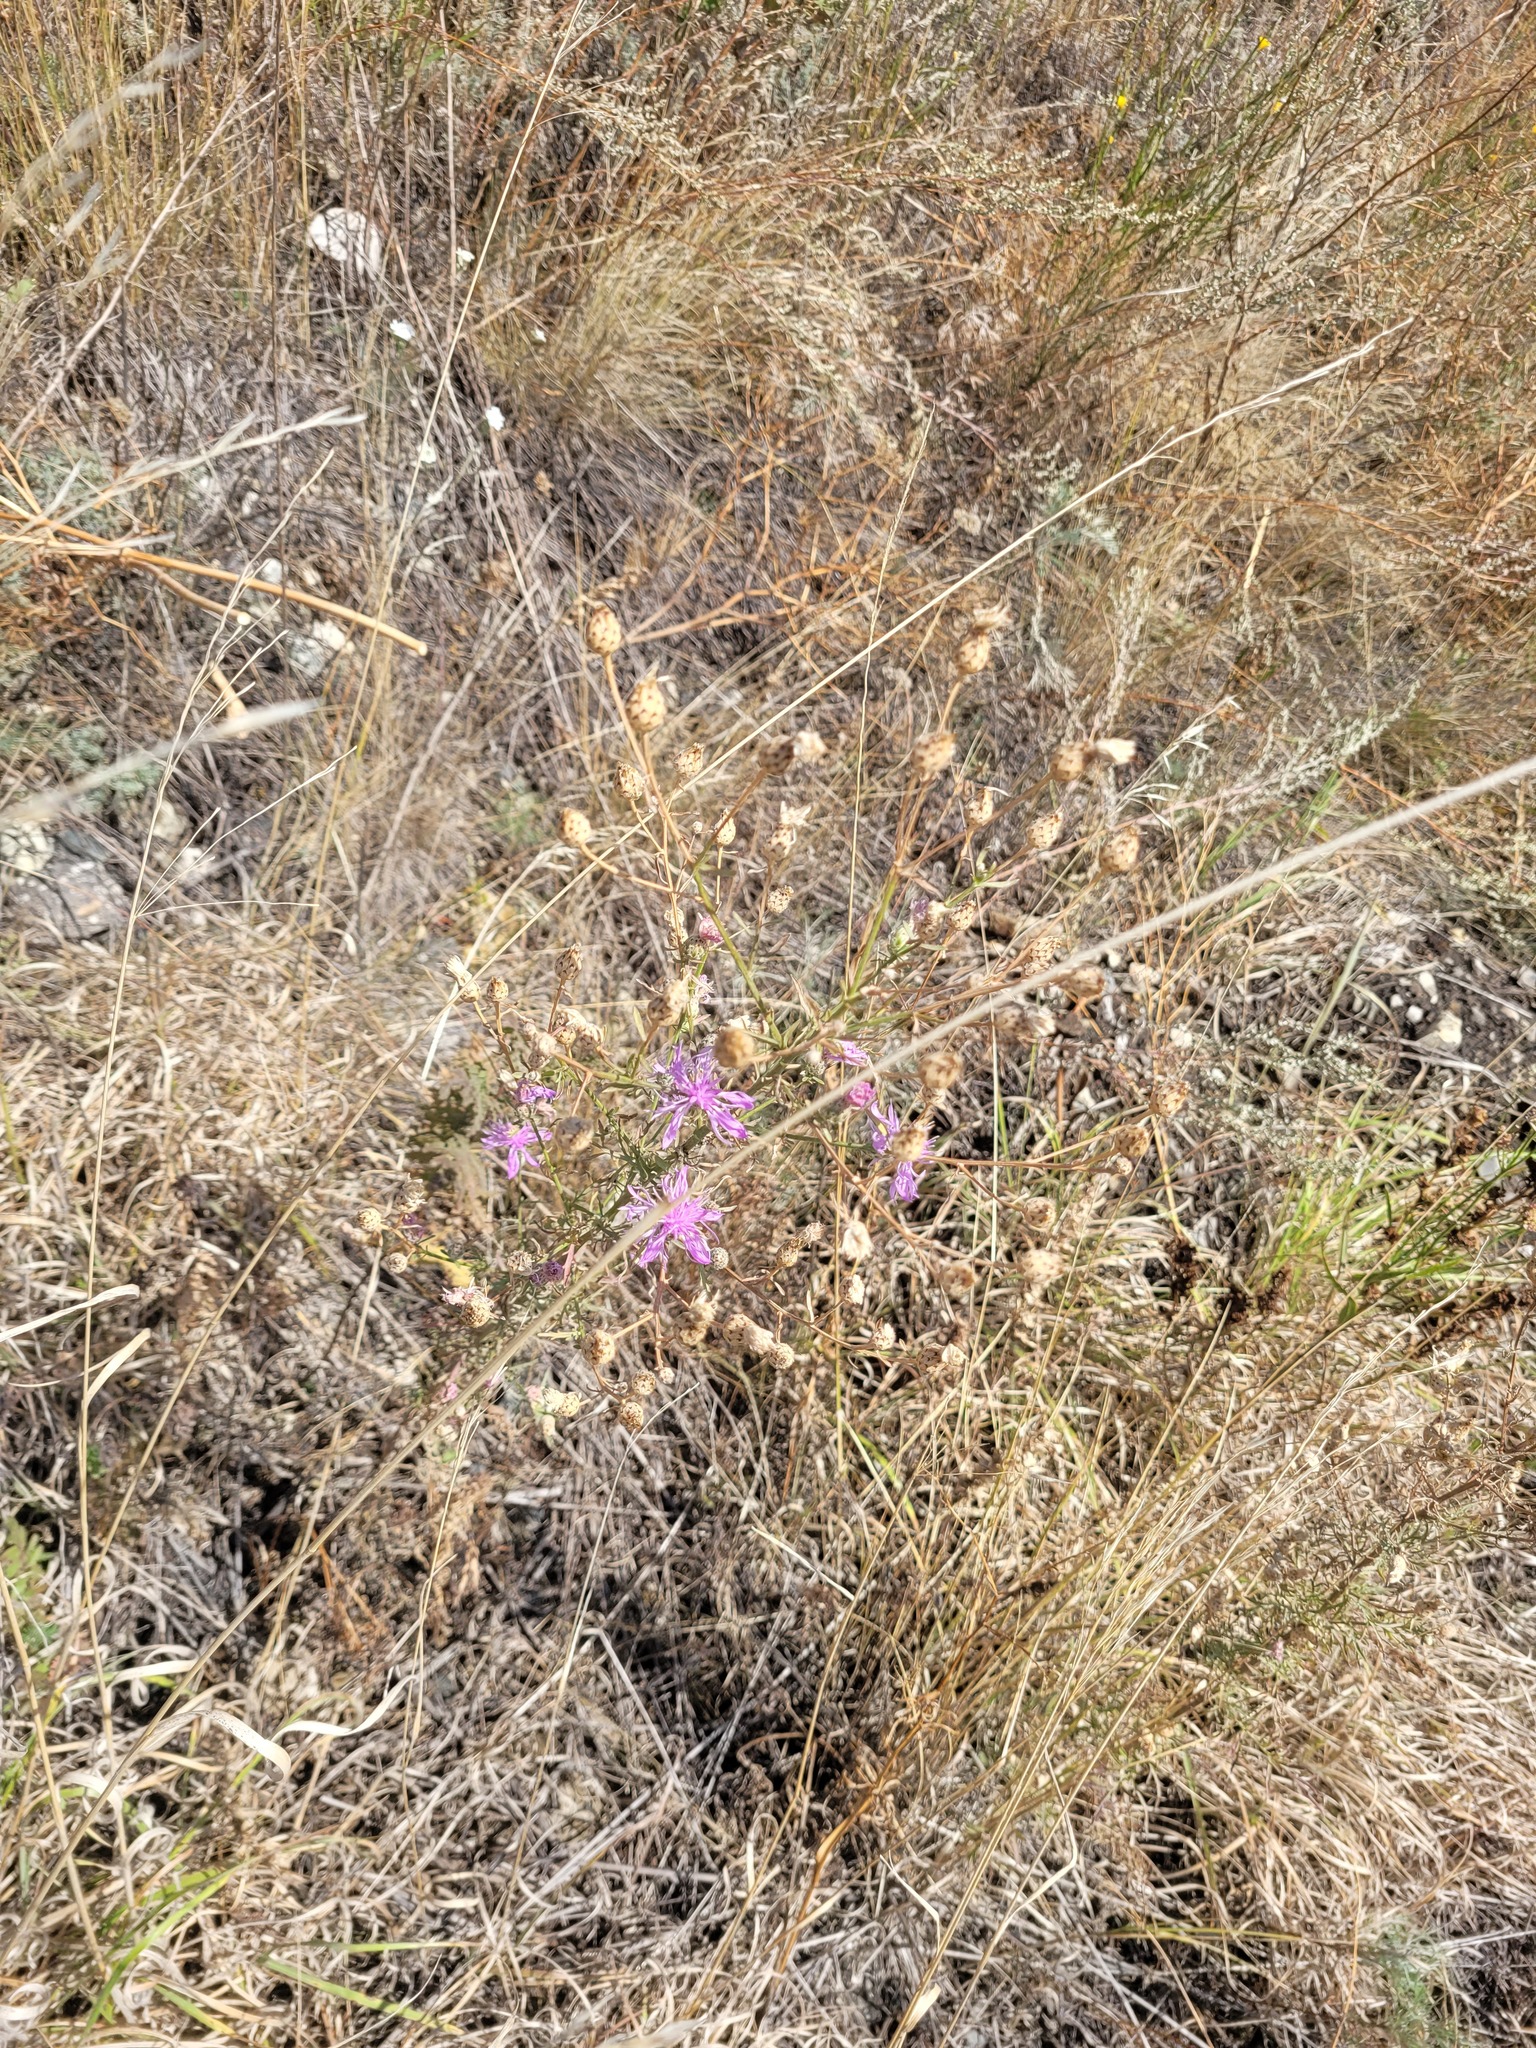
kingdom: Plantae
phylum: Tracheophyta
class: Magnoliopsida
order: Asterales
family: Asteraceae
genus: Centaurea
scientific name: Centaurea australis
